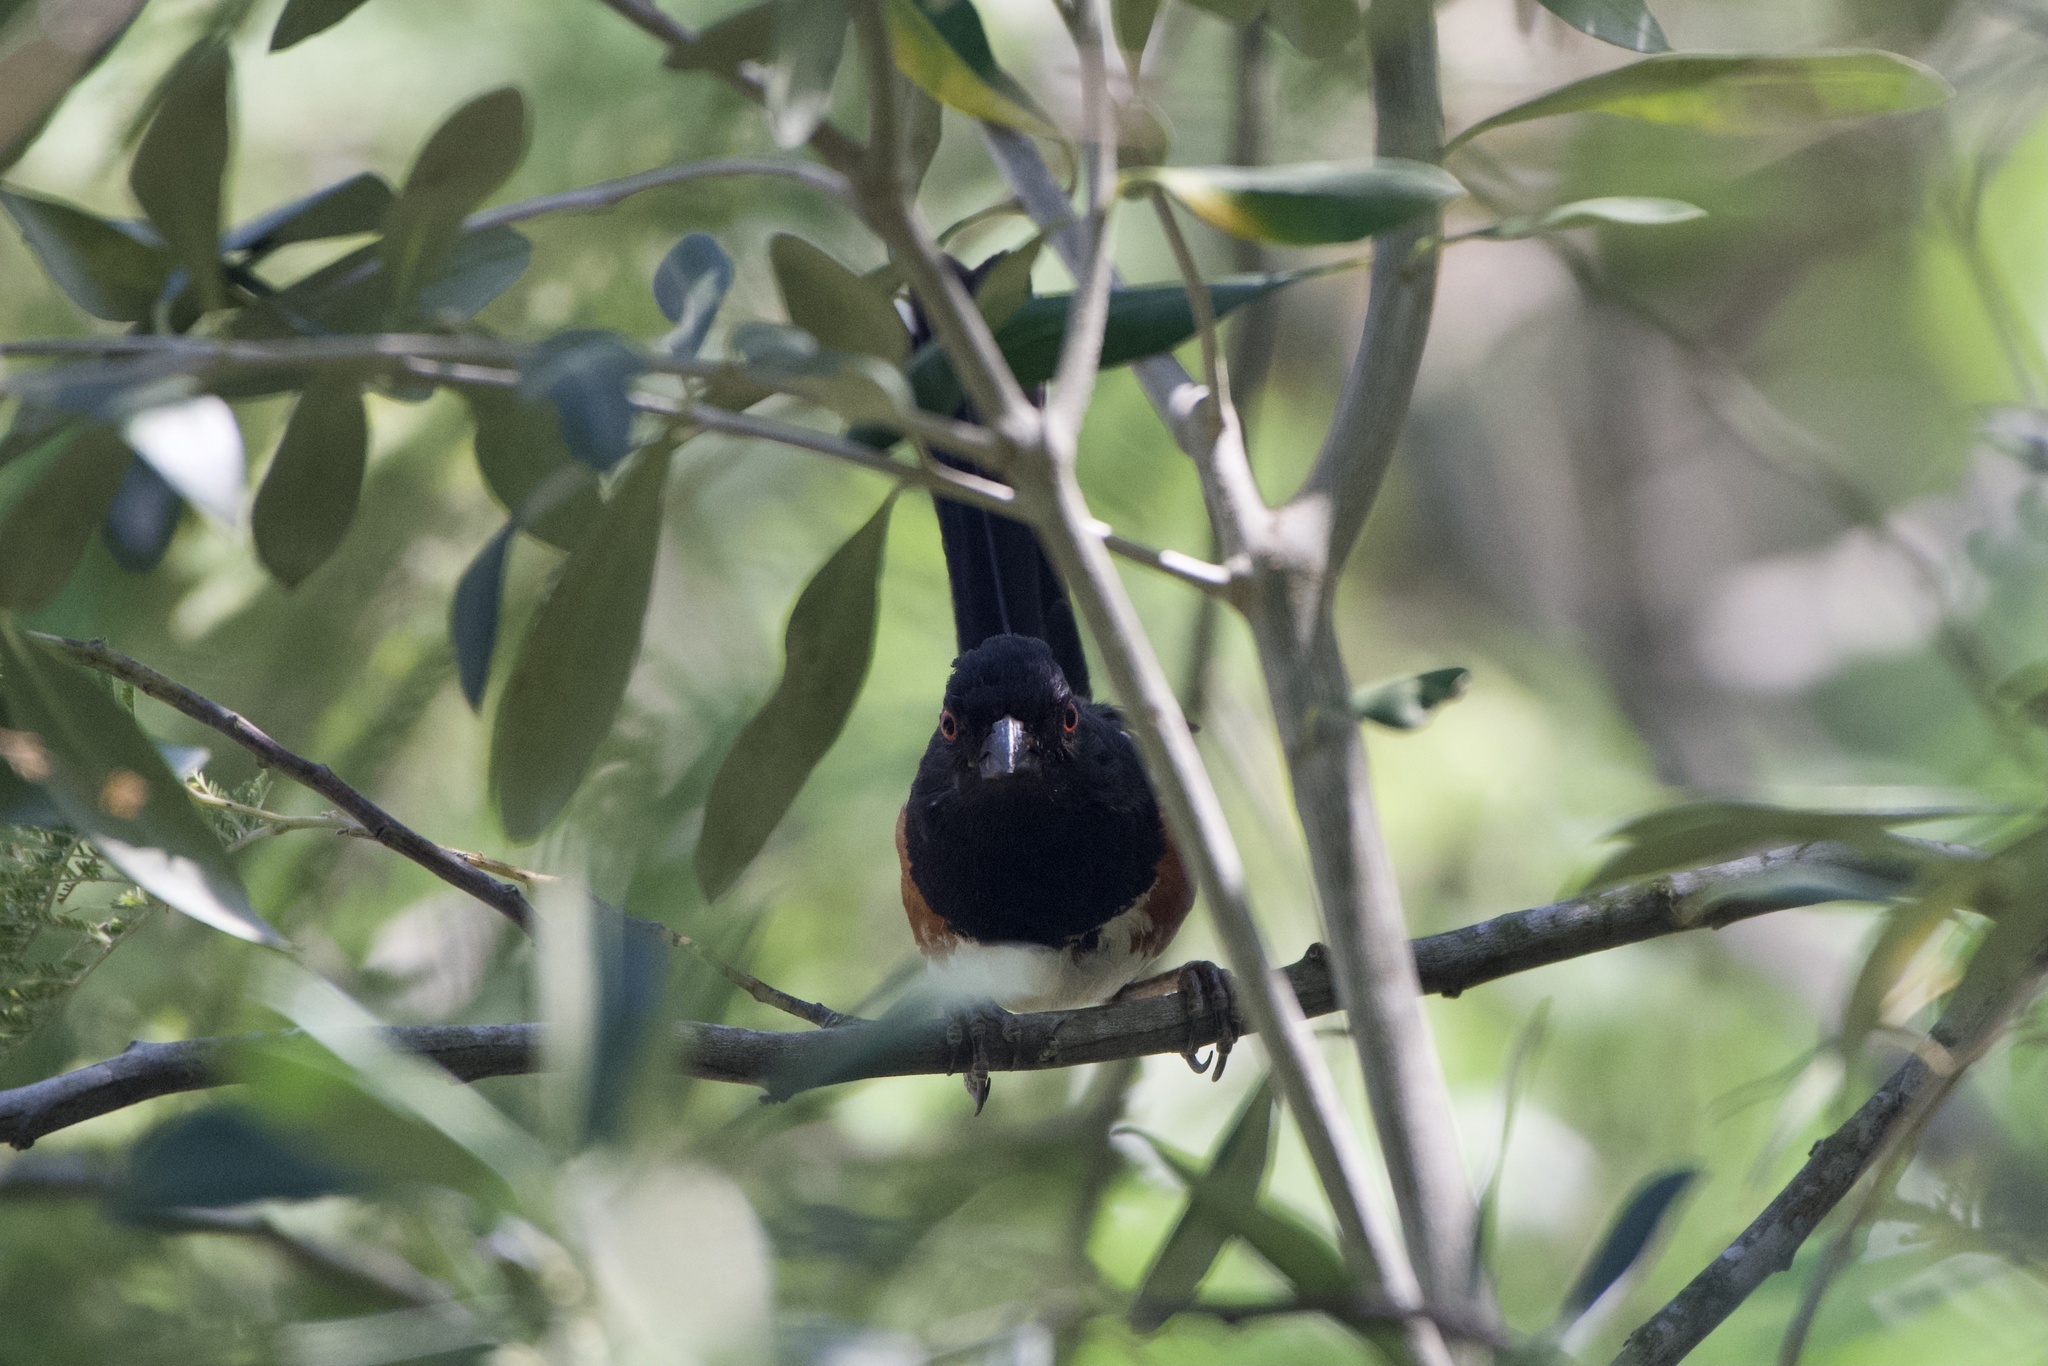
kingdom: Animalia
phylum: Chordata
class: Aves
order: Passeriformes
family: Passerellidae
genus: Pipilo
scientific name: Pipilo maculatus
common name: Spotted towhee
